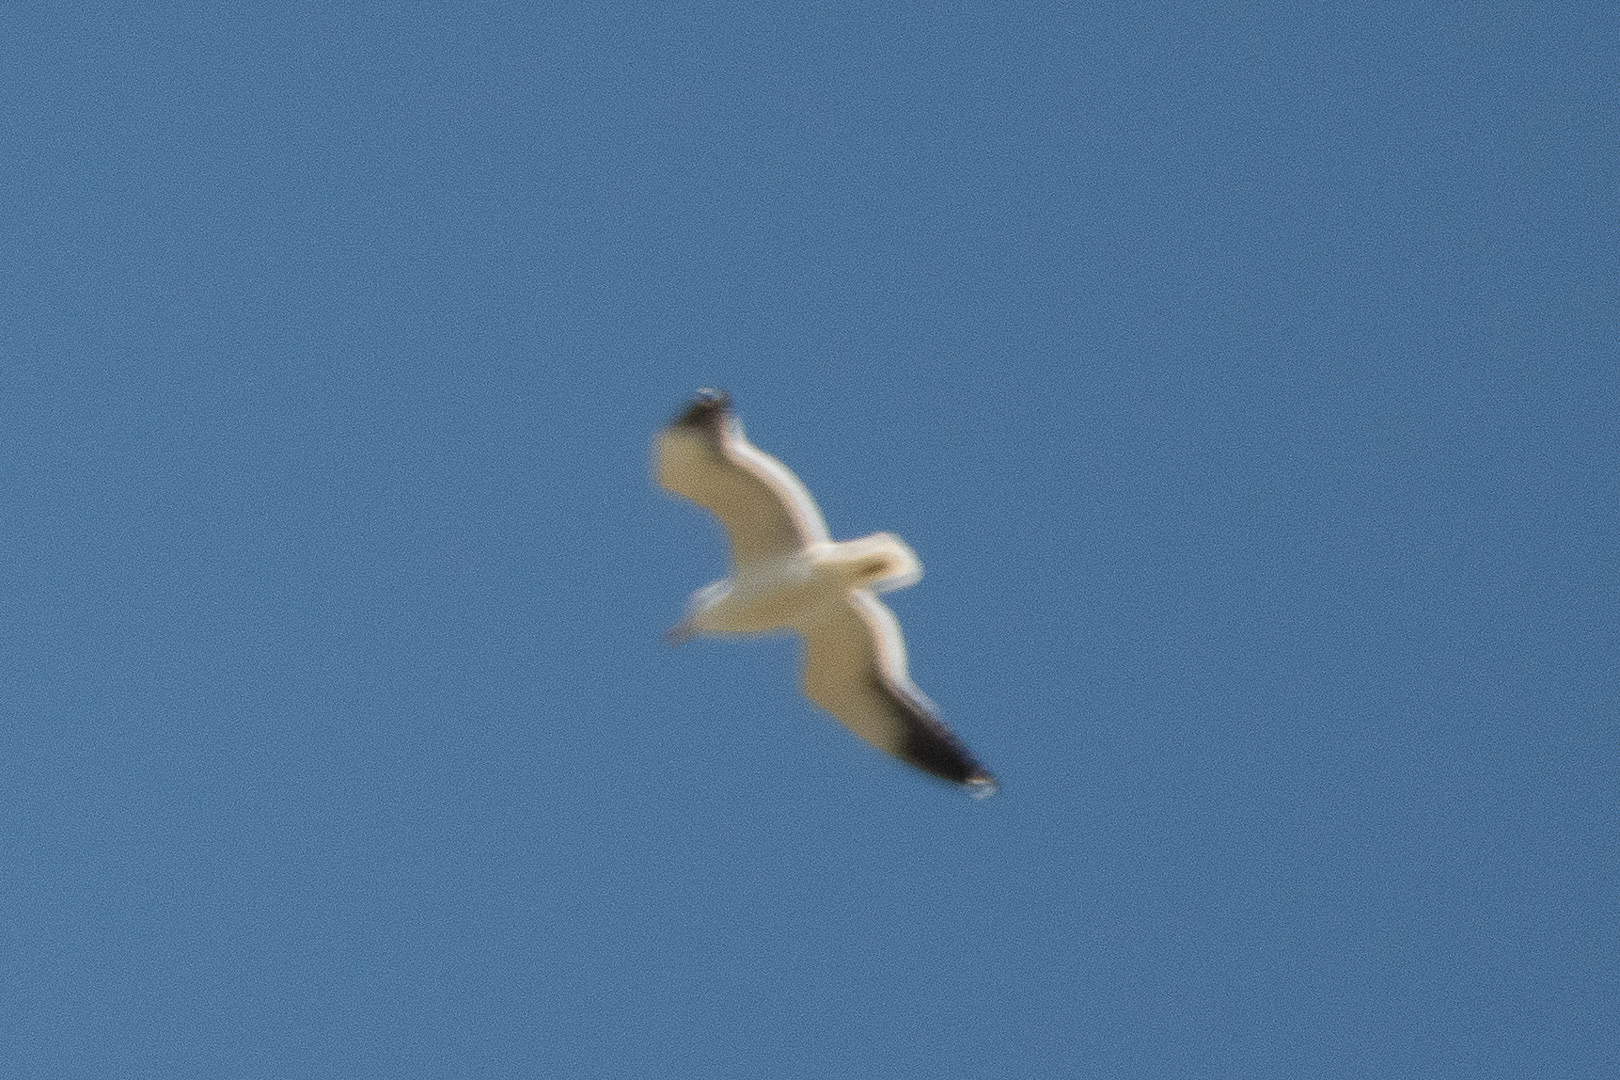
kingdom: Animalia
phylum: Chordata
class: Aves
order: Charadriiformes
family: Laridae
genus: Larus
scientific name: Larus dominicanus
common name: Kelp gull
